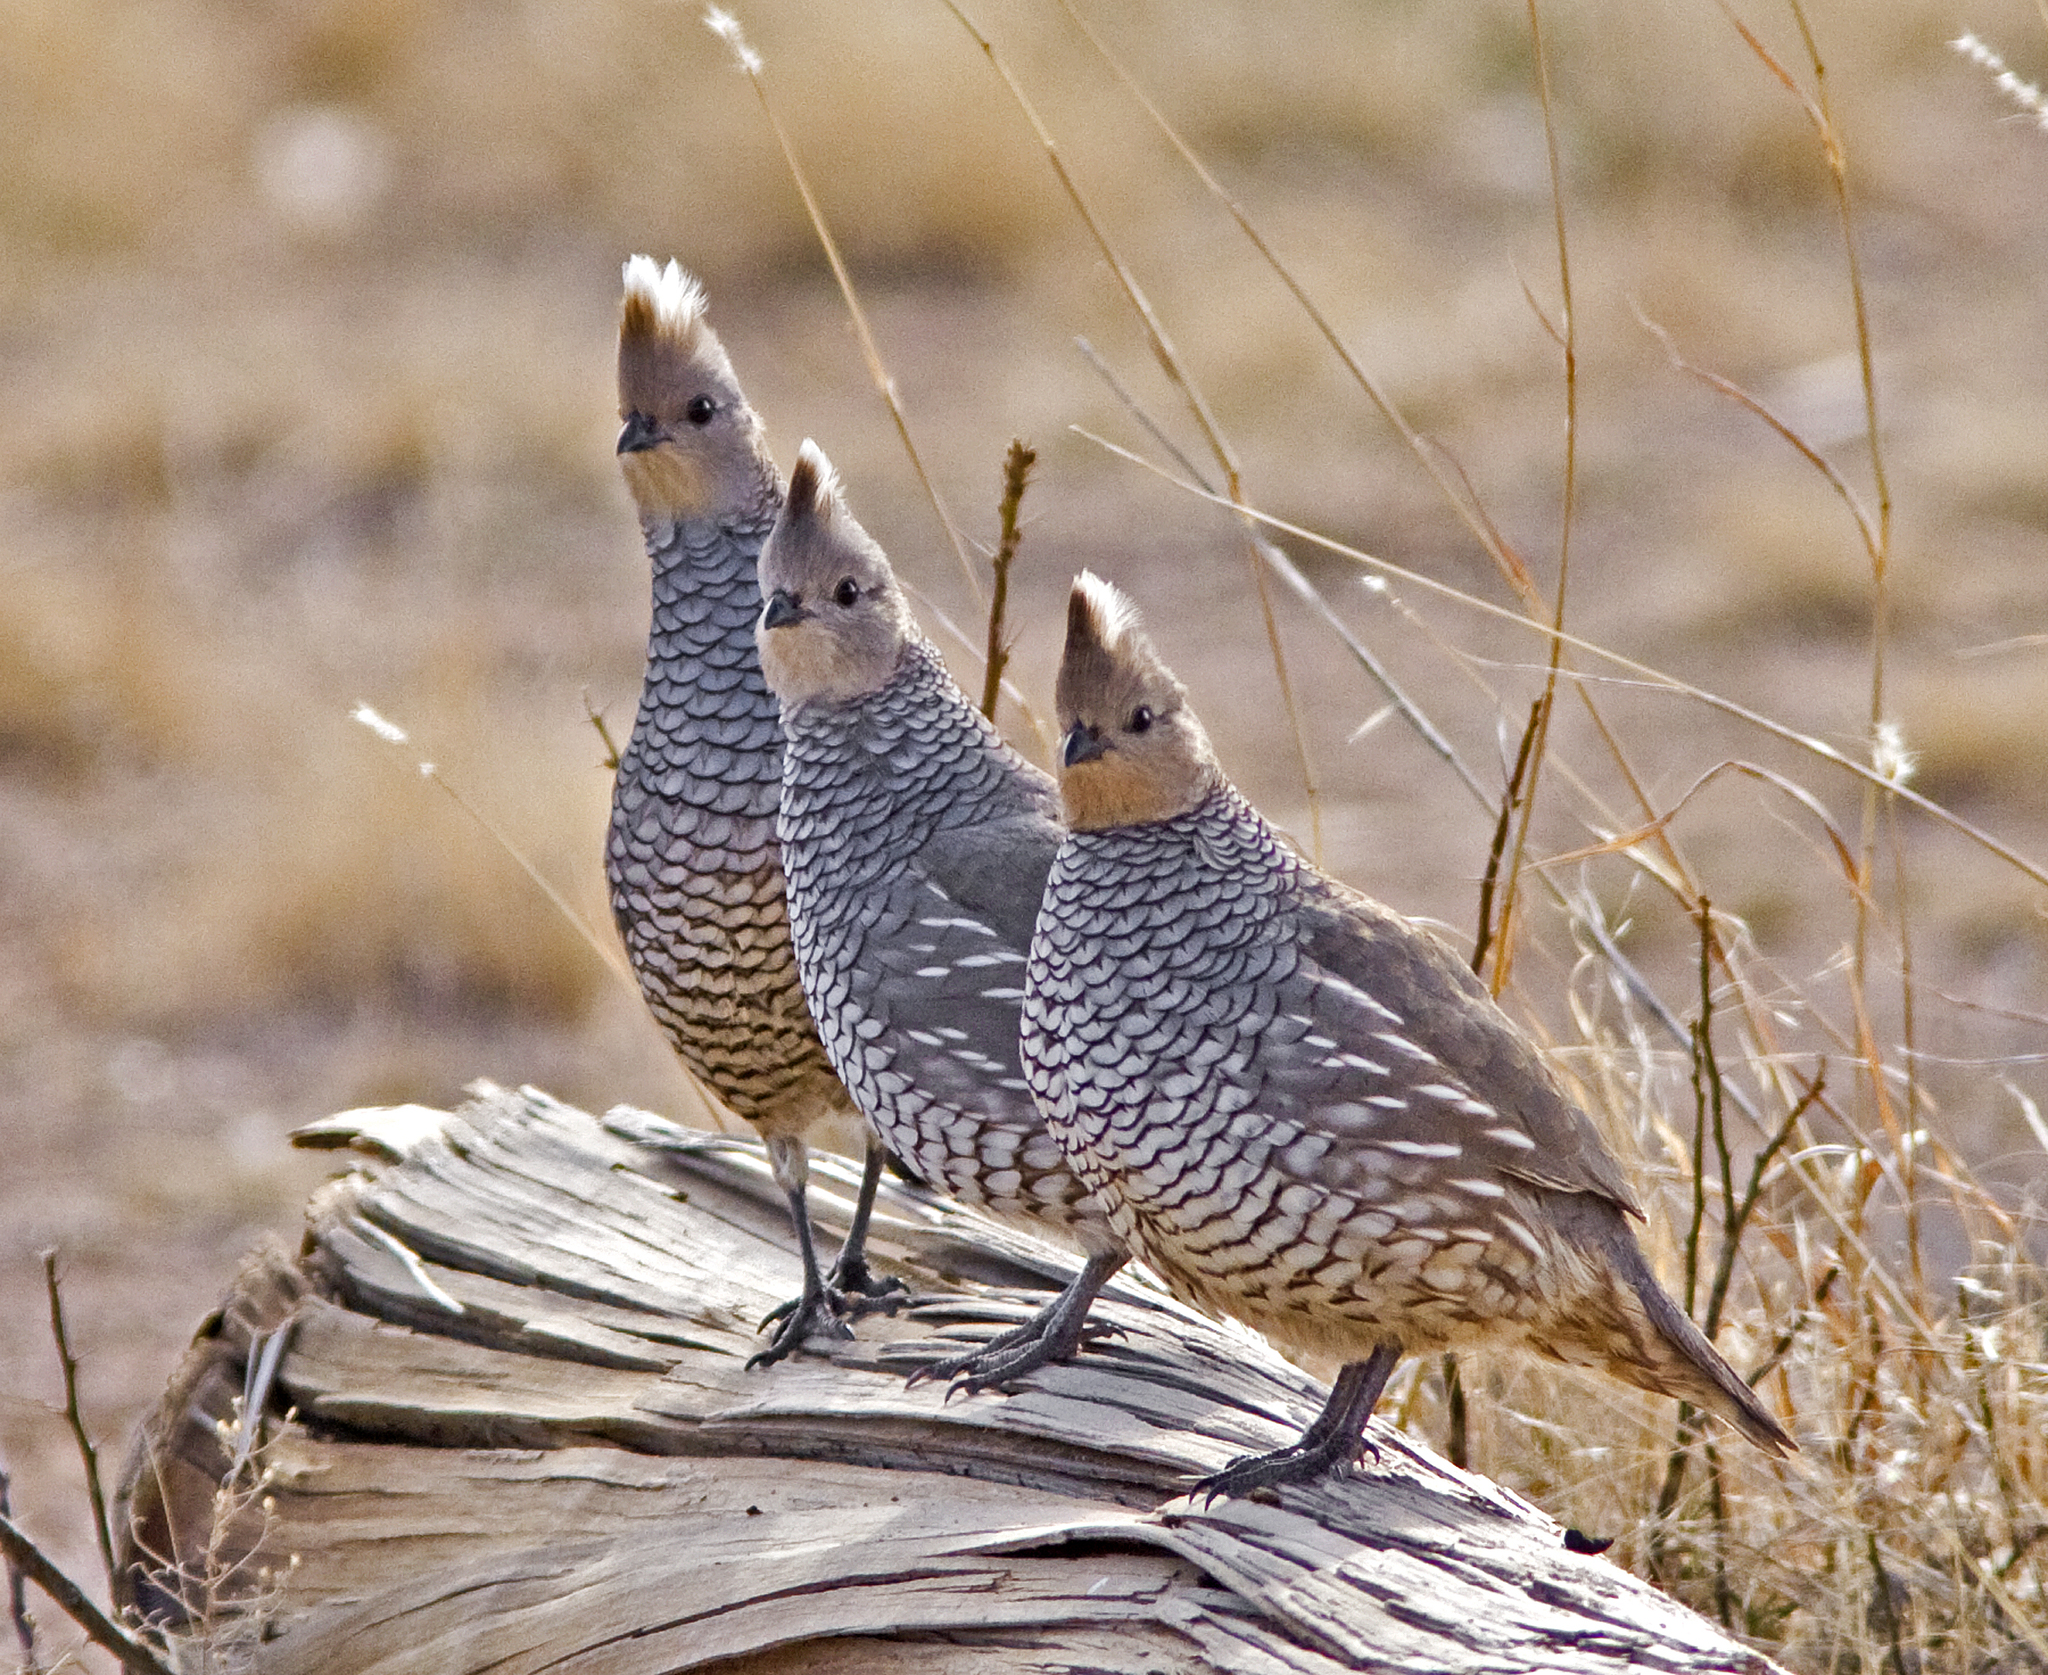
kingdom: Animalia
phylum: Chordata
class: Aves
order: Galliformes
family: Odontophoridae
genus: Callipepla
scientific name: Callipepla squamata
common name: Scaled quail
